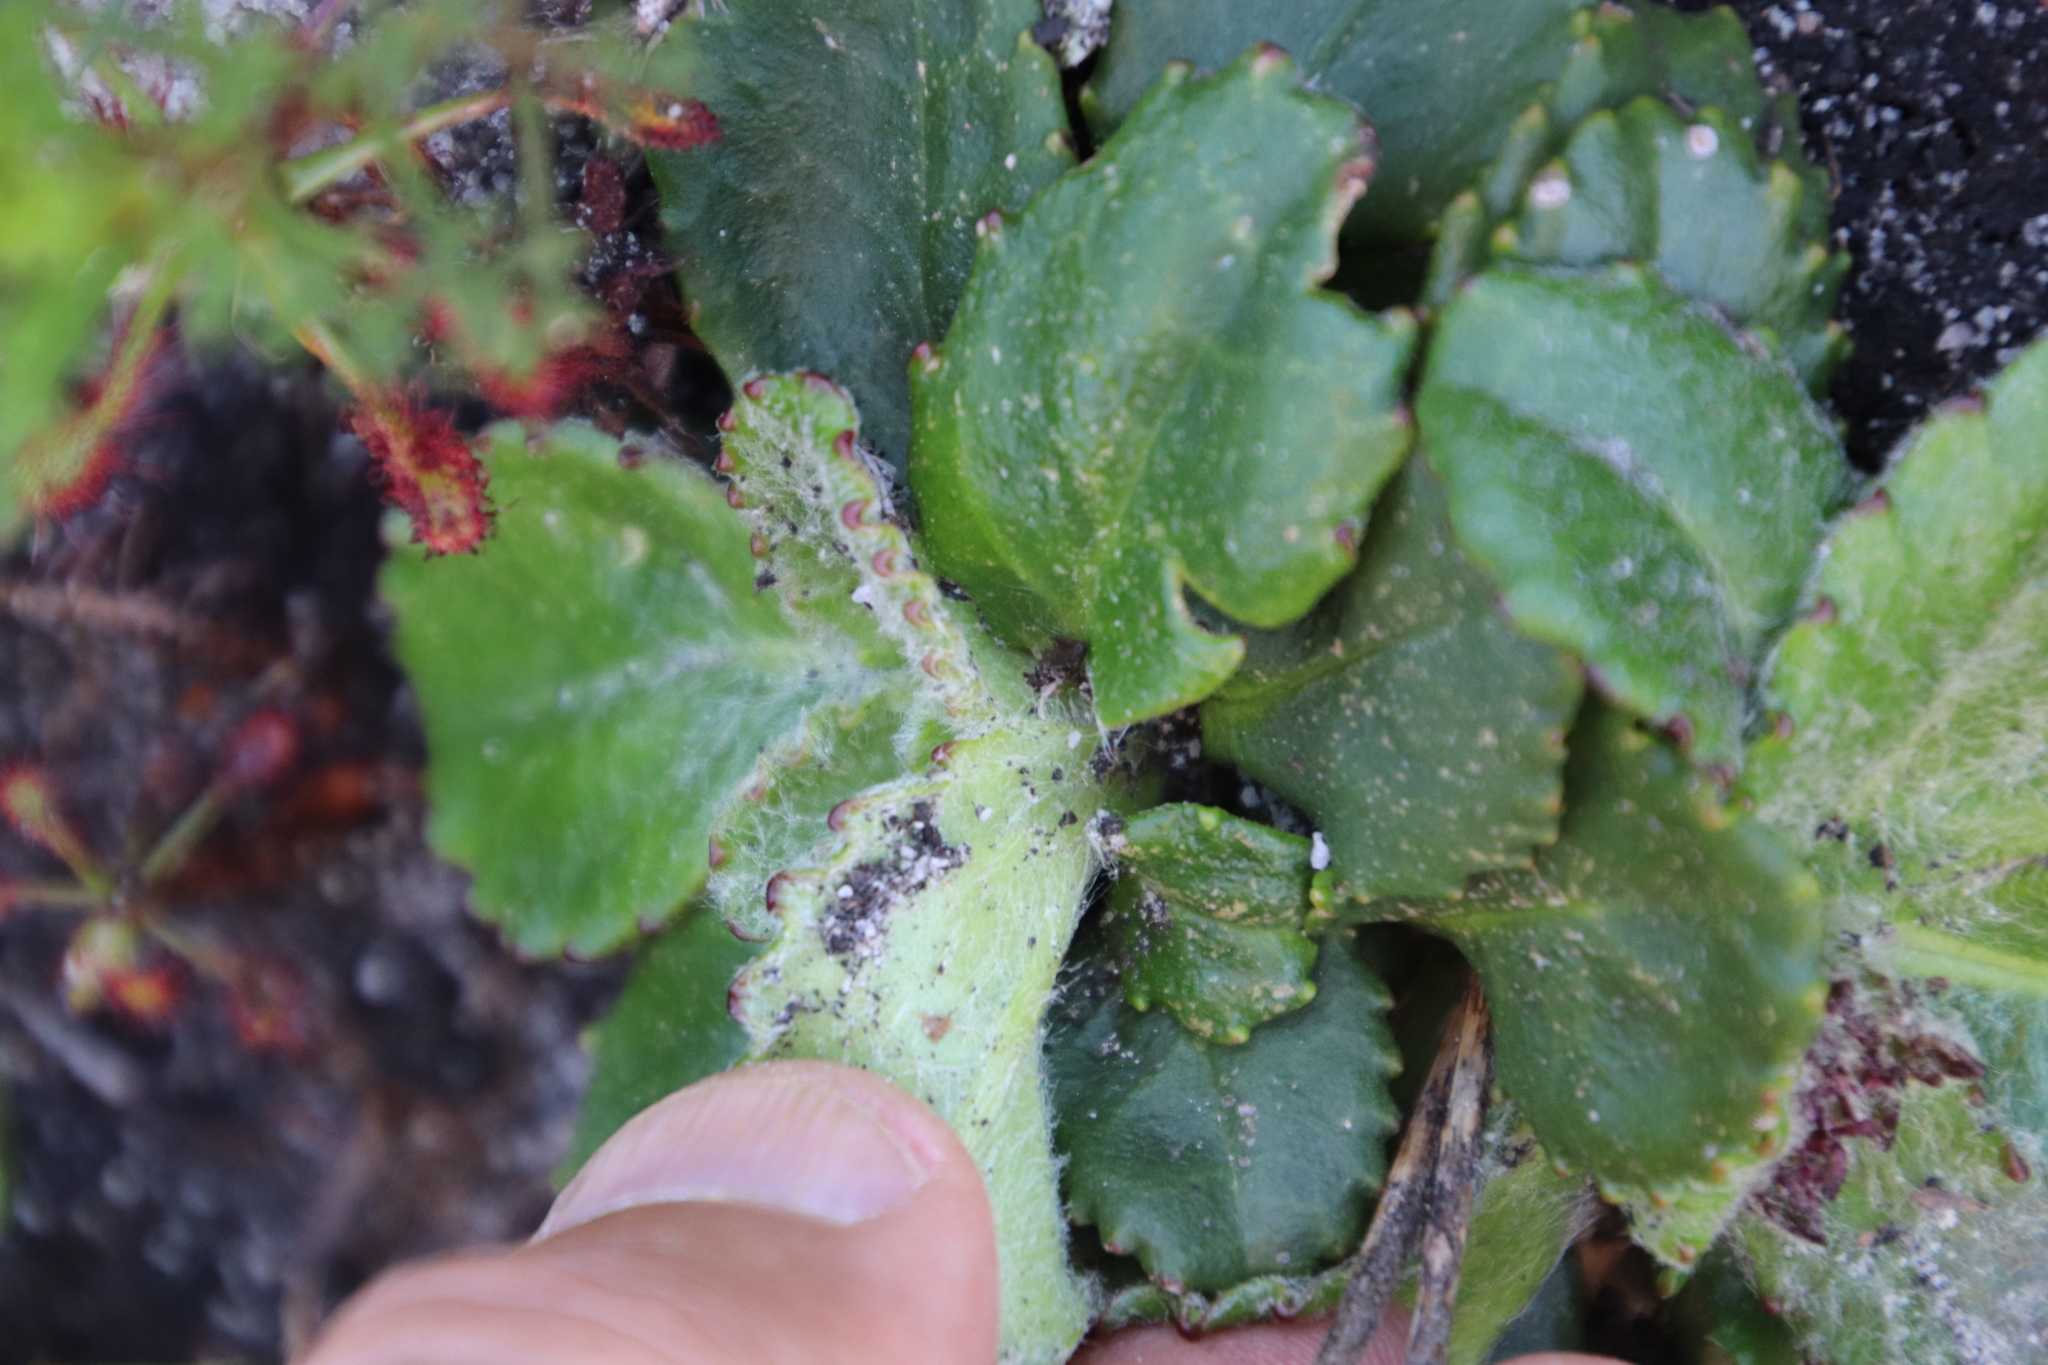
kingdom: Plantae
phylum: Tracheophyta
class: Magnoliopsida
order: Asterales
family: Asteraceae
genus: Zyrphelis
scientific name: Zyrphelis crenata
